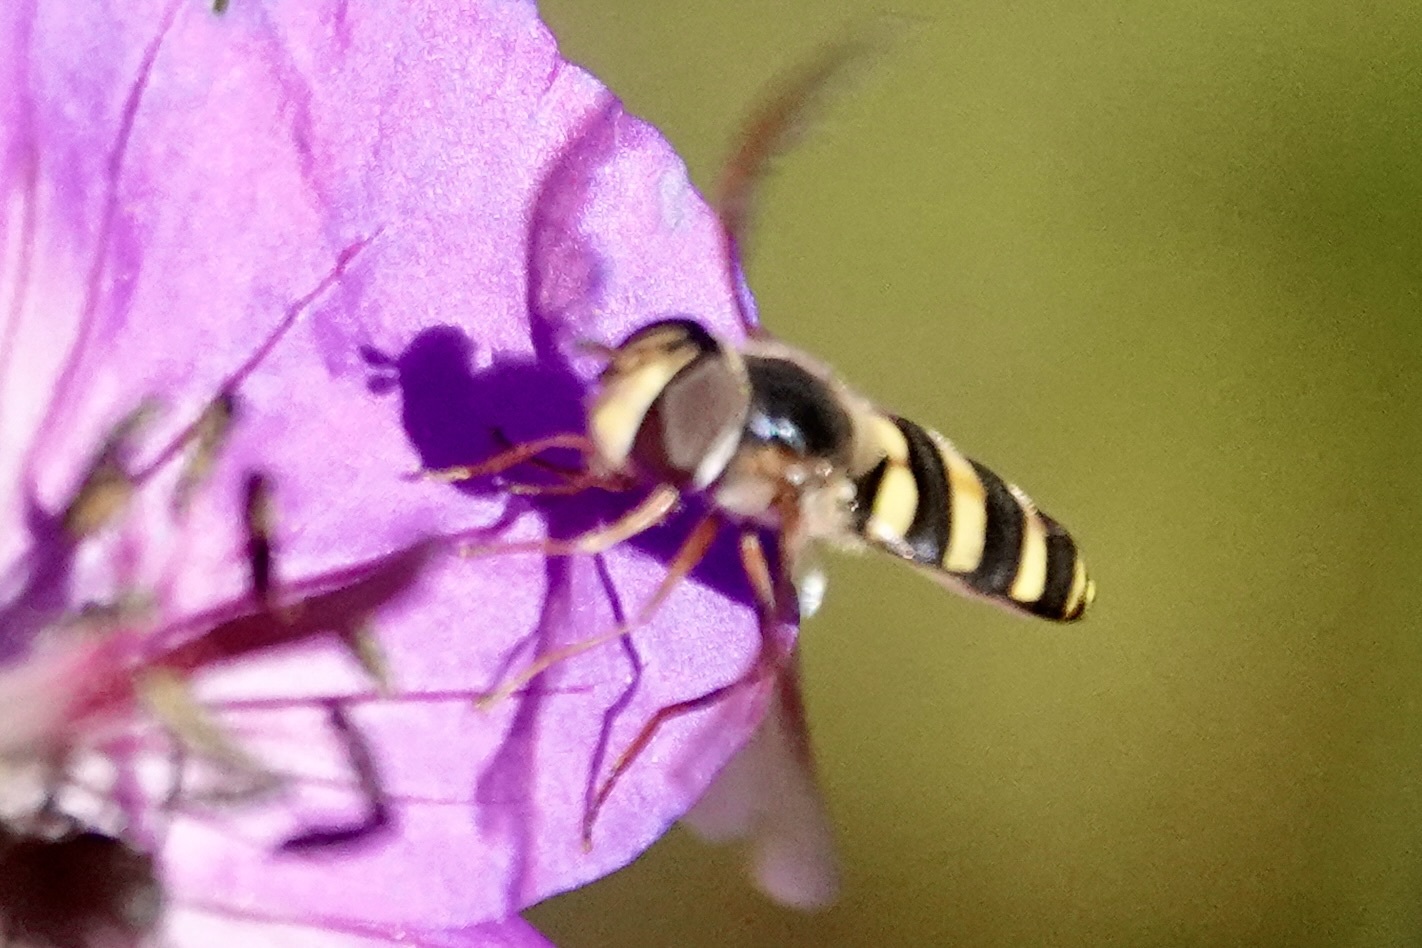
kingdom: Animalia
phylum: Arthropoda
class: Insecta
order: Diptera
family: Syrphidae
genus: Eupeodes
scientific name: Eupeodes
